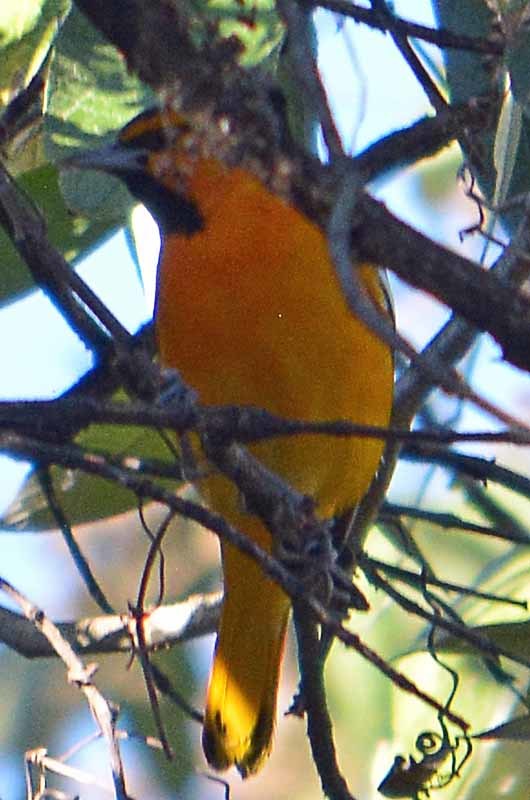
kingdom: Animalia
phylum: Chordata
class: Aves
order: Passeriformes
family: Icteridae
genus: Icterus
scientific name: Icterus bullockii
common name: Bullock's oriole
